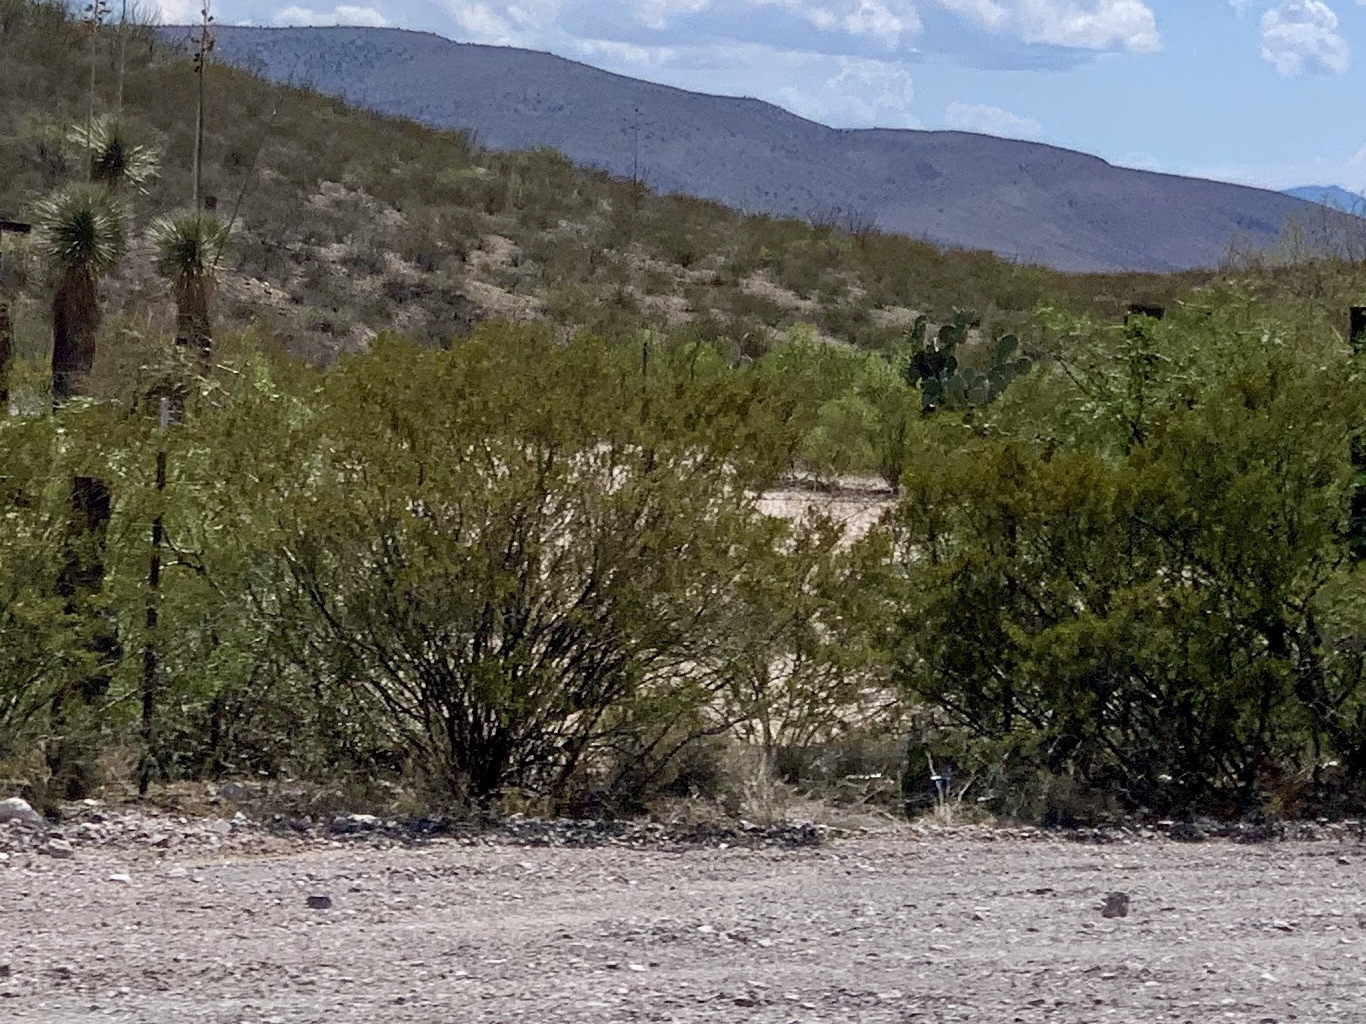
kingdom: Plantae
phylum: Tracheophyta
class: Magnoliopsida
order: Zygophyllales
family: Zygophyllaceae
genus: Larrea
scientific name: Larrea tridentata
